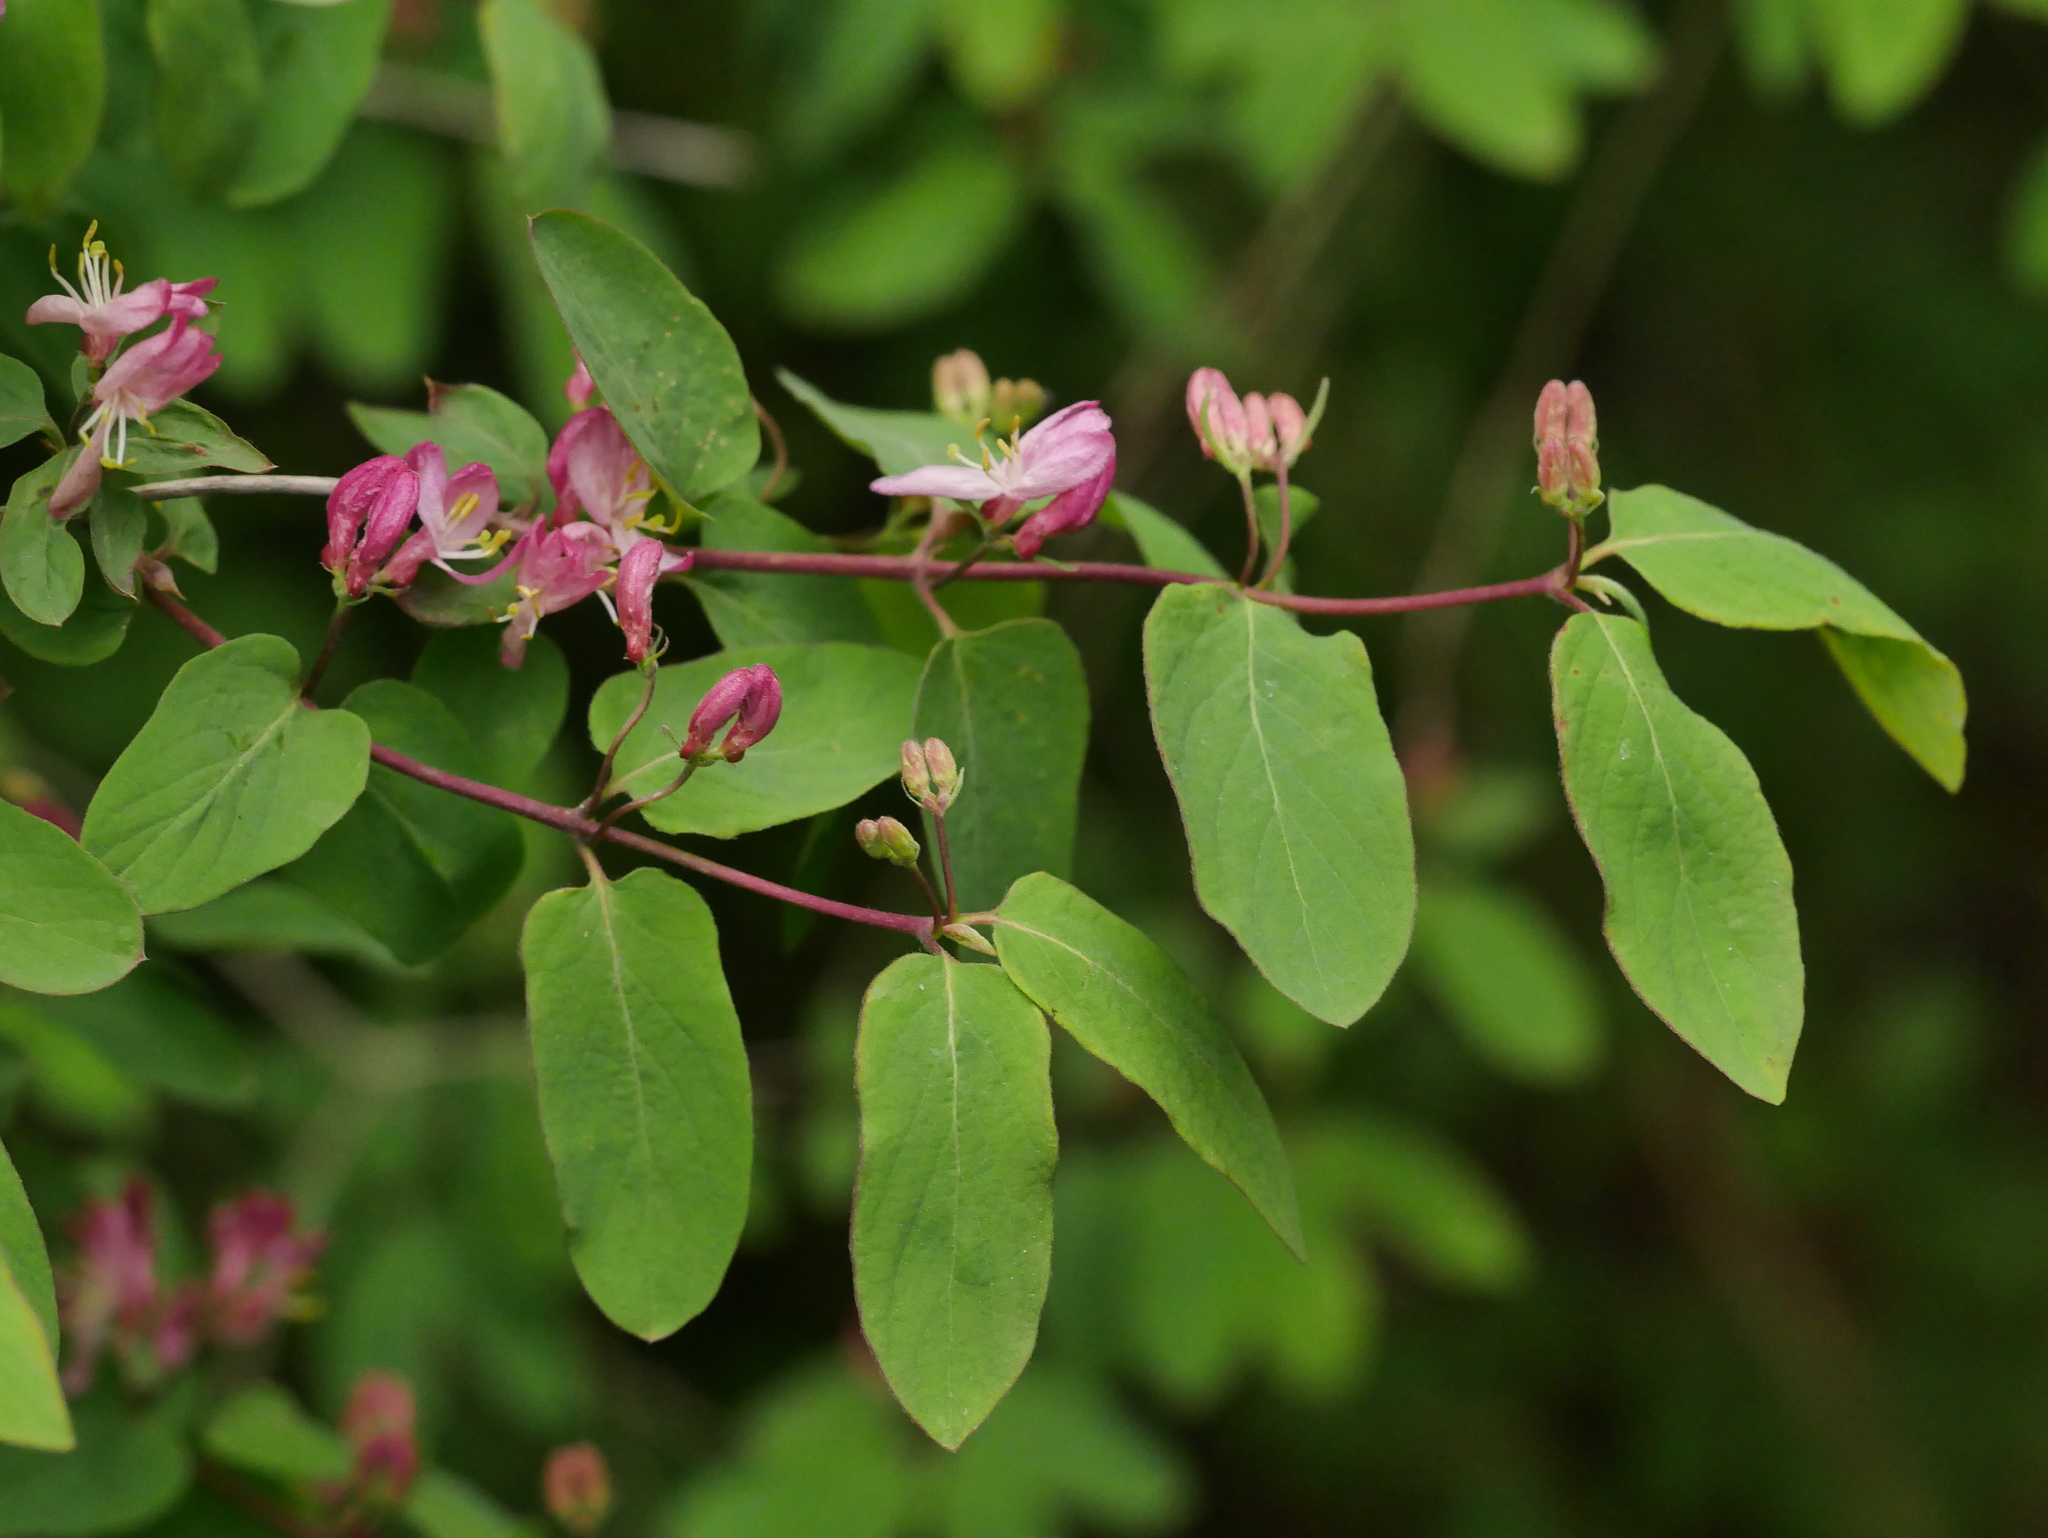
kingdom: Plantae
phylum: Tracheophyta
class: Magnoliopsida
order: Dipsacales
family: Caprifoliaceae
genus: Lonicera
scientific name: Lonicera tatarica
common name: Tatarian honeysuckle
